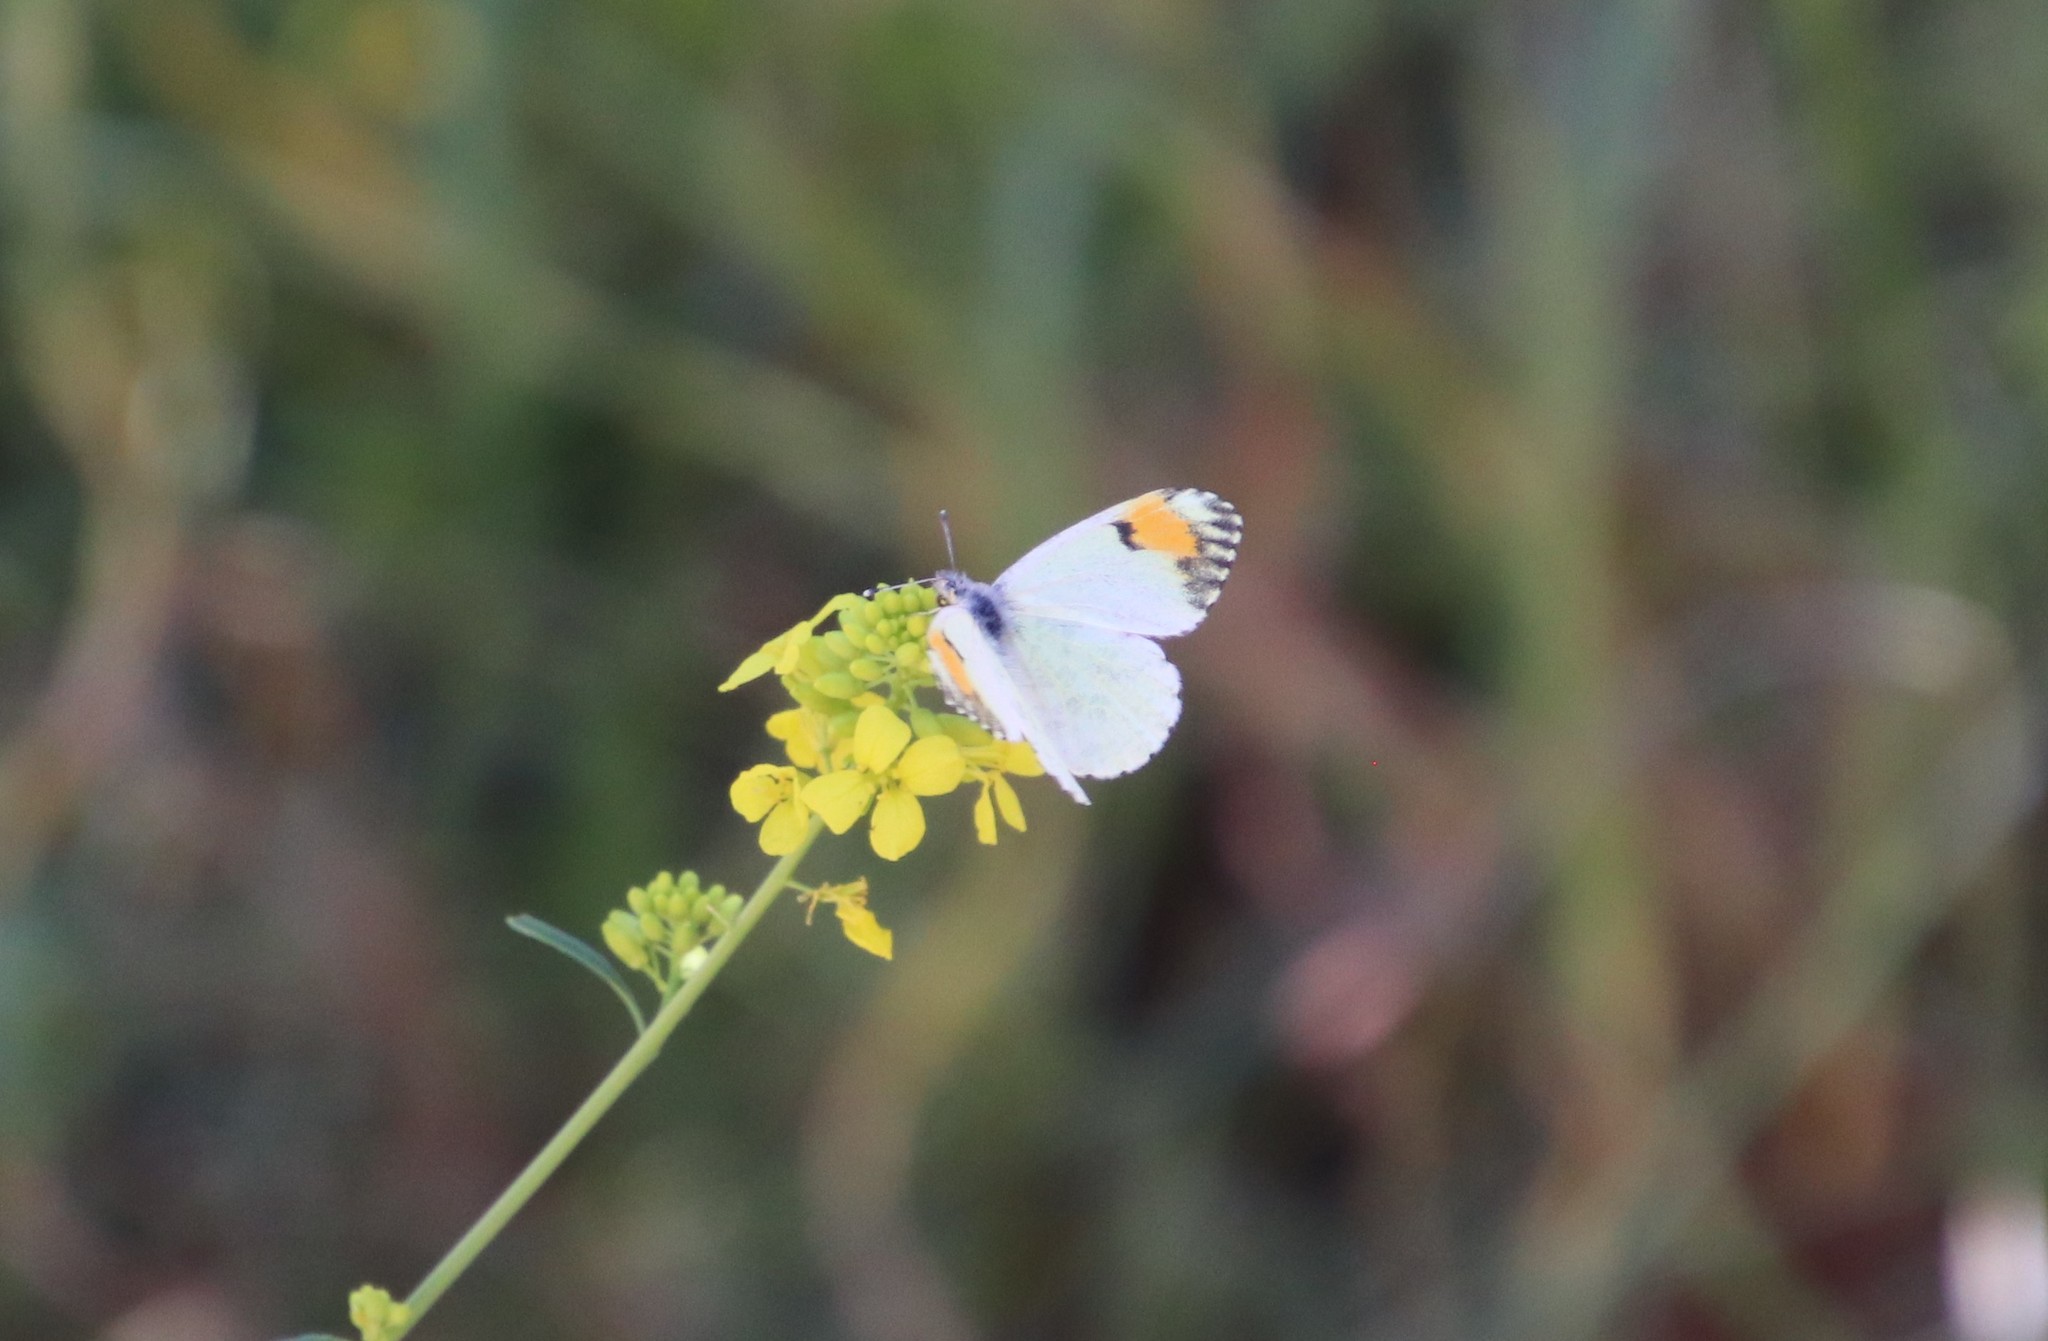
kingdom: Animalia
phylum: Arthropoda
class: Insecta
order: Lepidoptera
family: Pieridae
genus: Anthocharis
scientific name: Anthocharis sara
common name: Sara's orangetip
